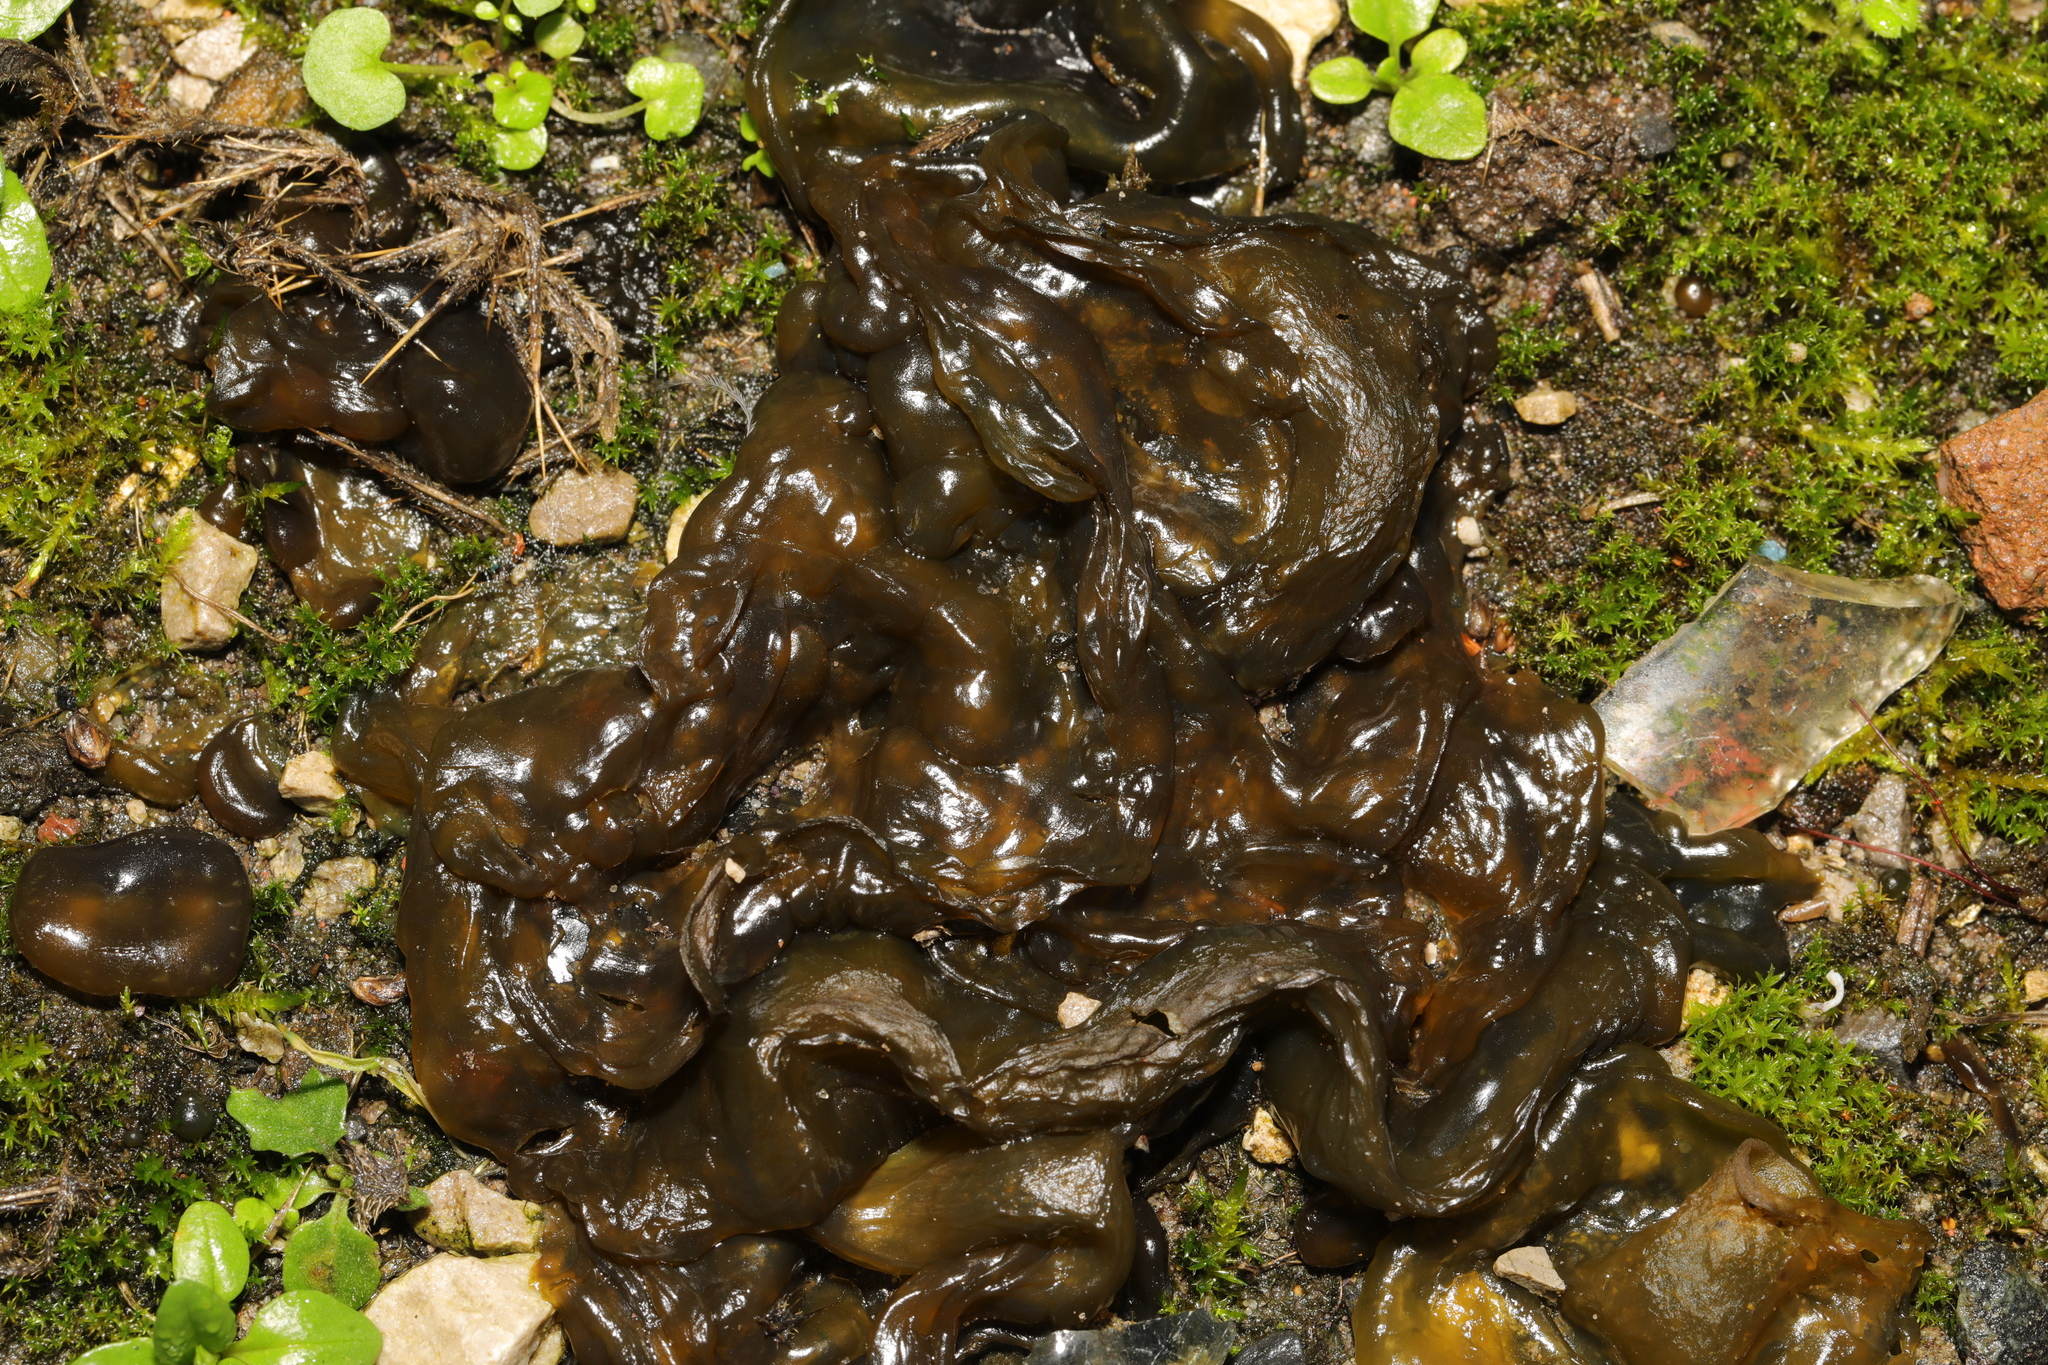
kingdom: Bacteria
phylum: Cyanobacteria
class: Cyanobacteriia
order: Cyanobacteriales
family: Nostocaceae
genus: Nostoc
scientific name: Nostoc commune
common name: Star jelly
